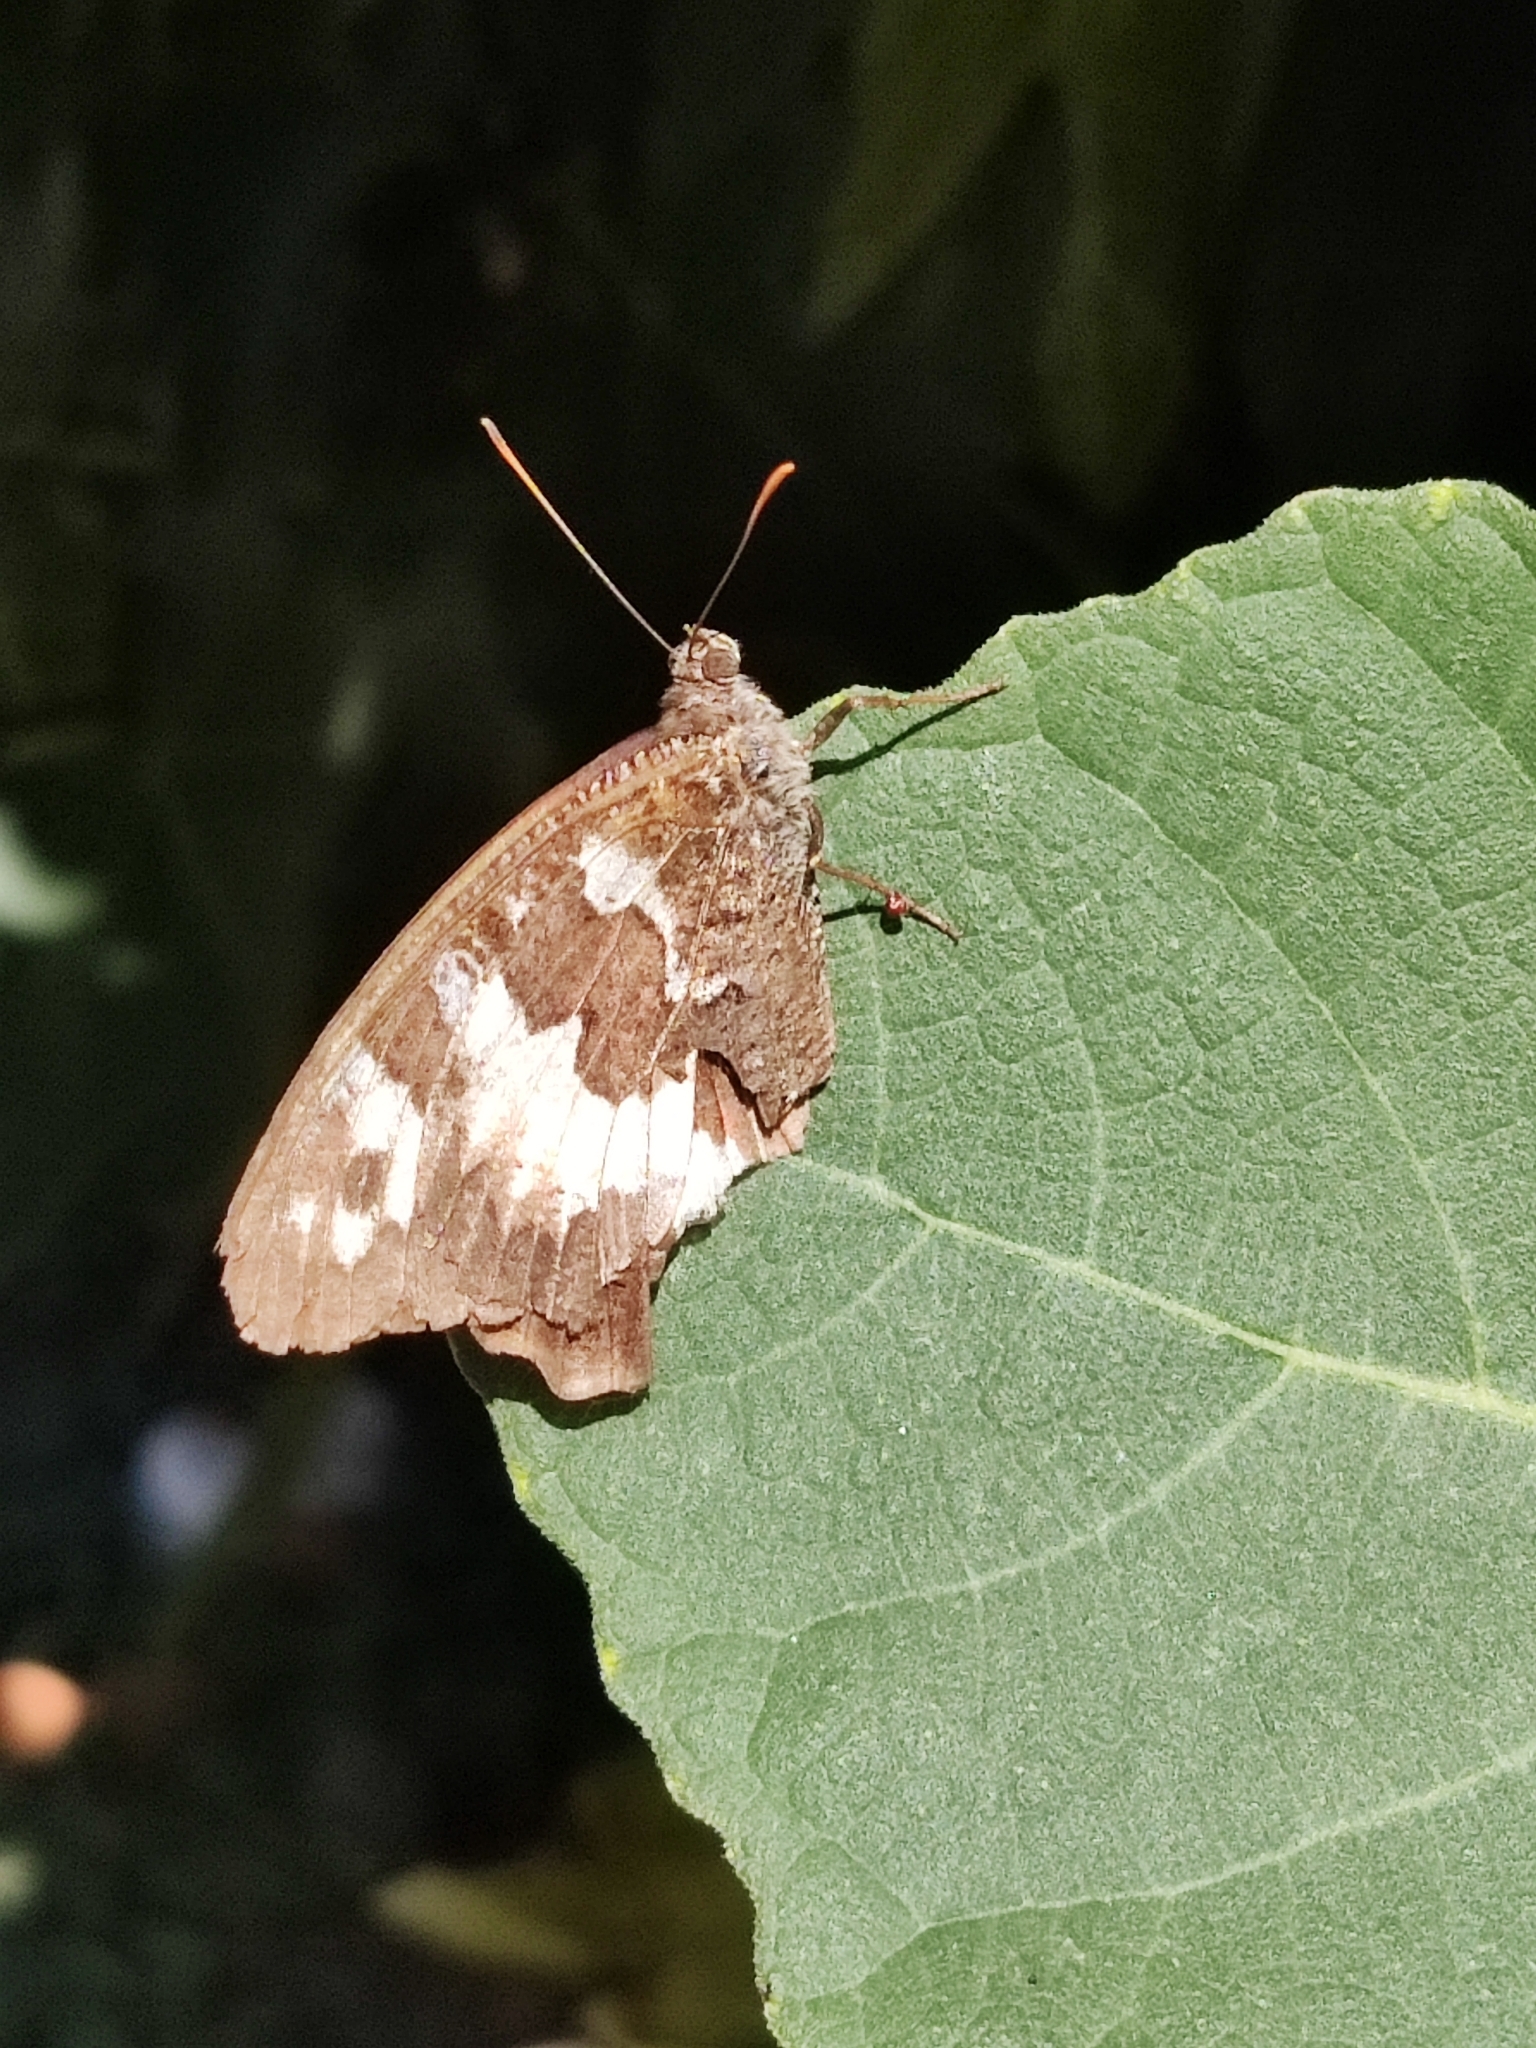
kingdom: Animalia
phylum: Arthropoda
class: Insecta
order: Lepidoptera
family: Lycaenidae
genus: Loweia
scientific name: Loweia tityrus
